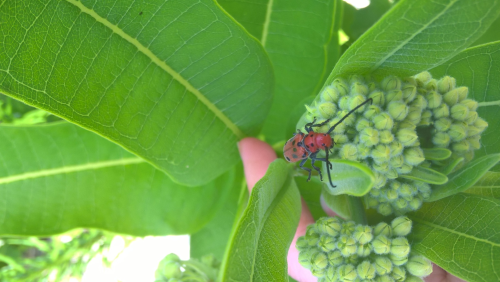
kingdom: Animalia
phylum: Arthropoda
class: Insecta
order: Coleoptera
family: Cerambycidae
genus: Tetraopes
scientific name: Tetraopes tetrophthalmus
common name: Red milkweed beetle
